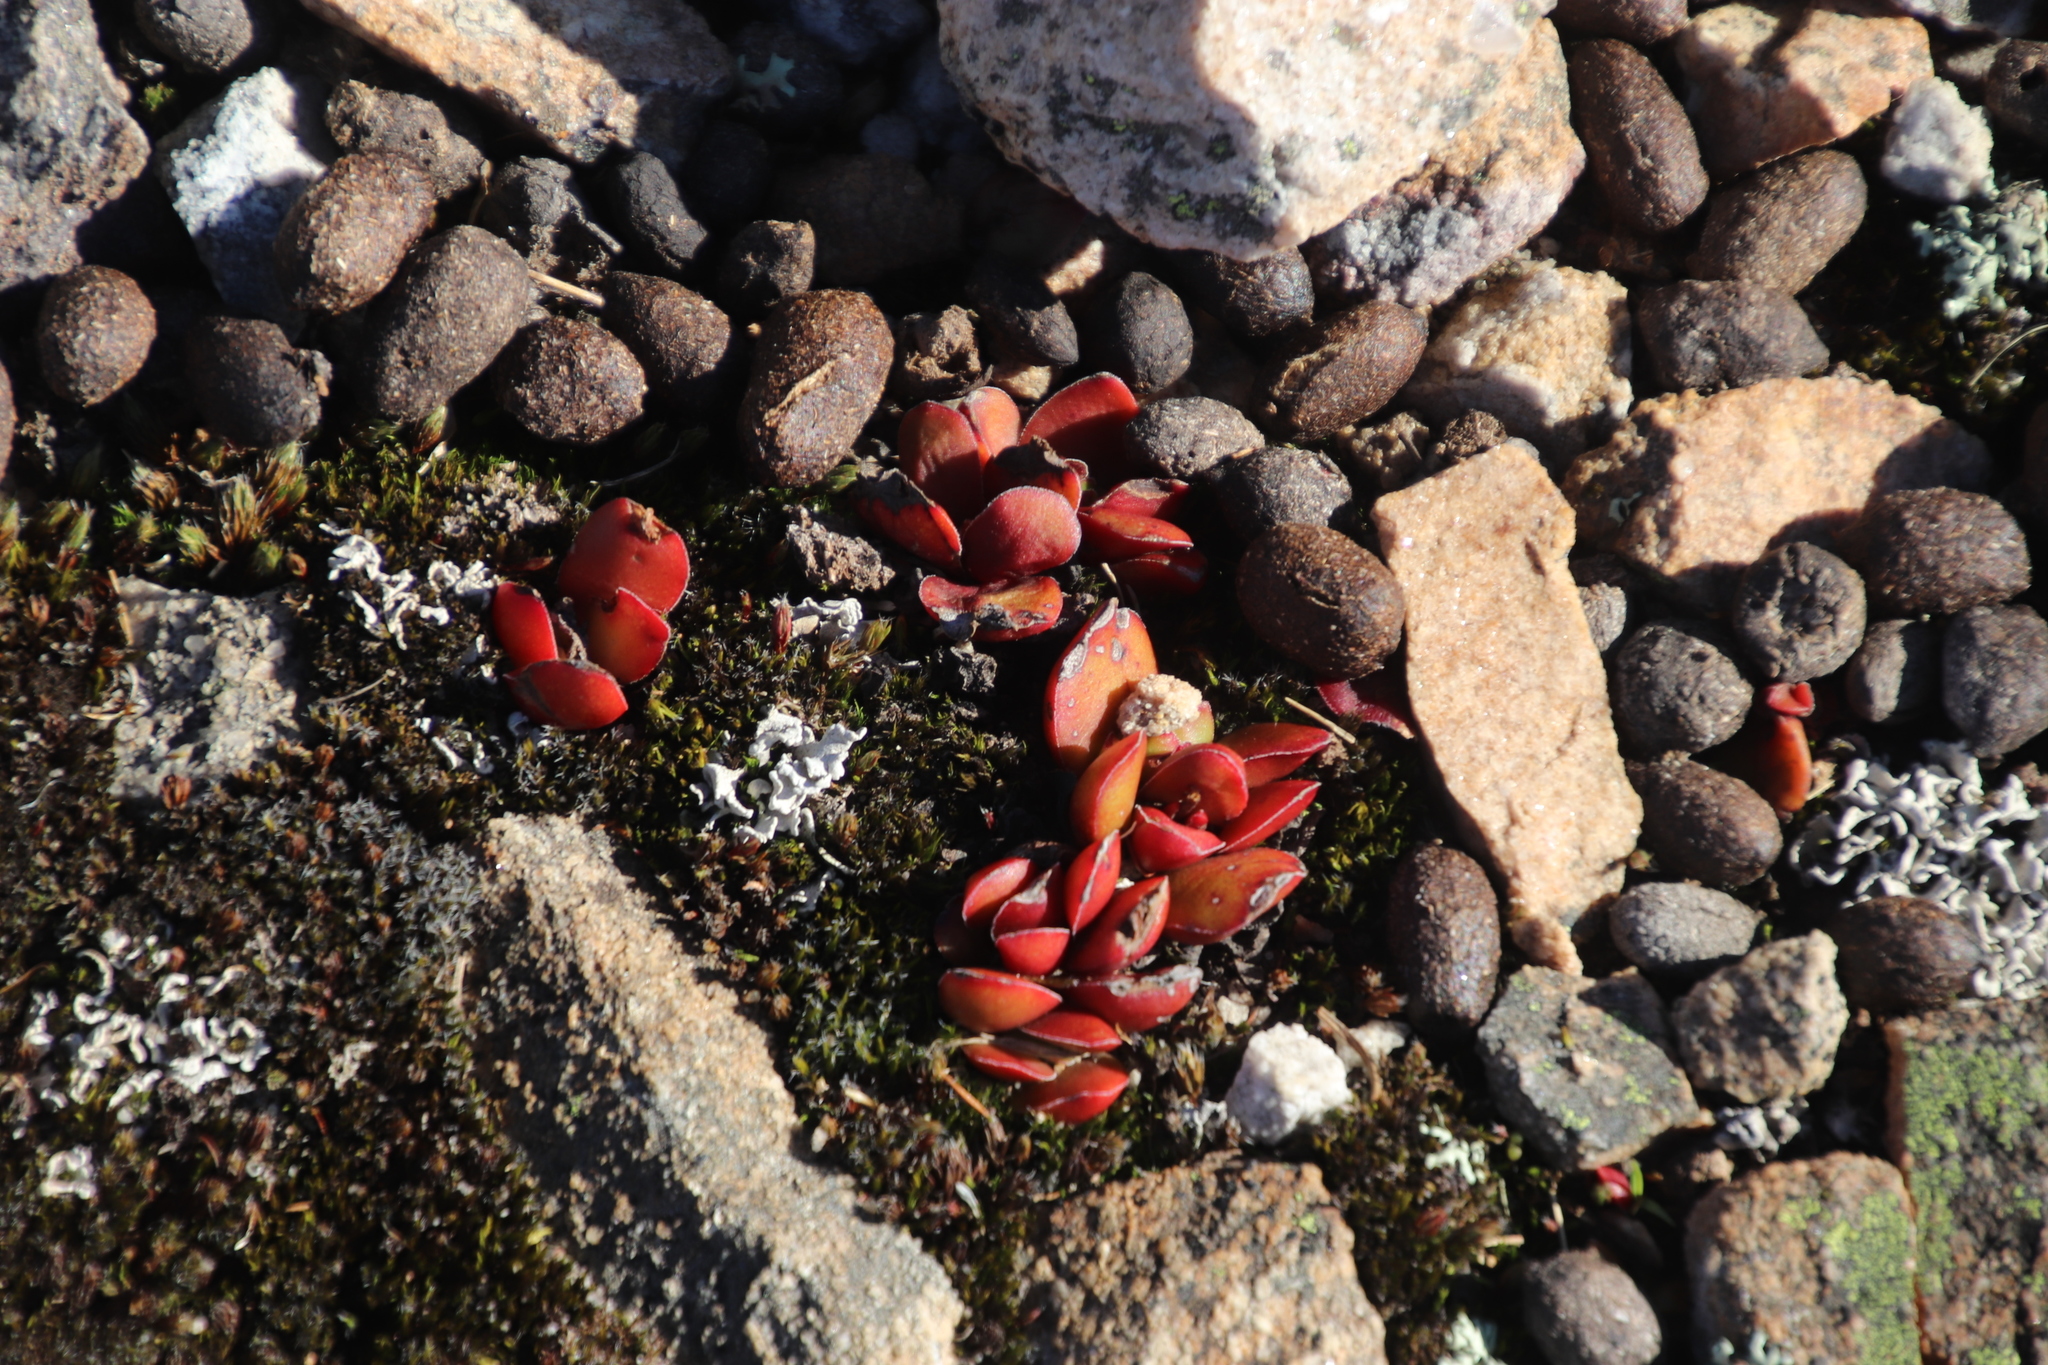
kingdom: Plantae
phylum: Tracheophyta
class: Magnoliopsida
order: Saxifragales
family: Crassulaceae
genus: Crassula
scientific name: Crassula nudicaulis
